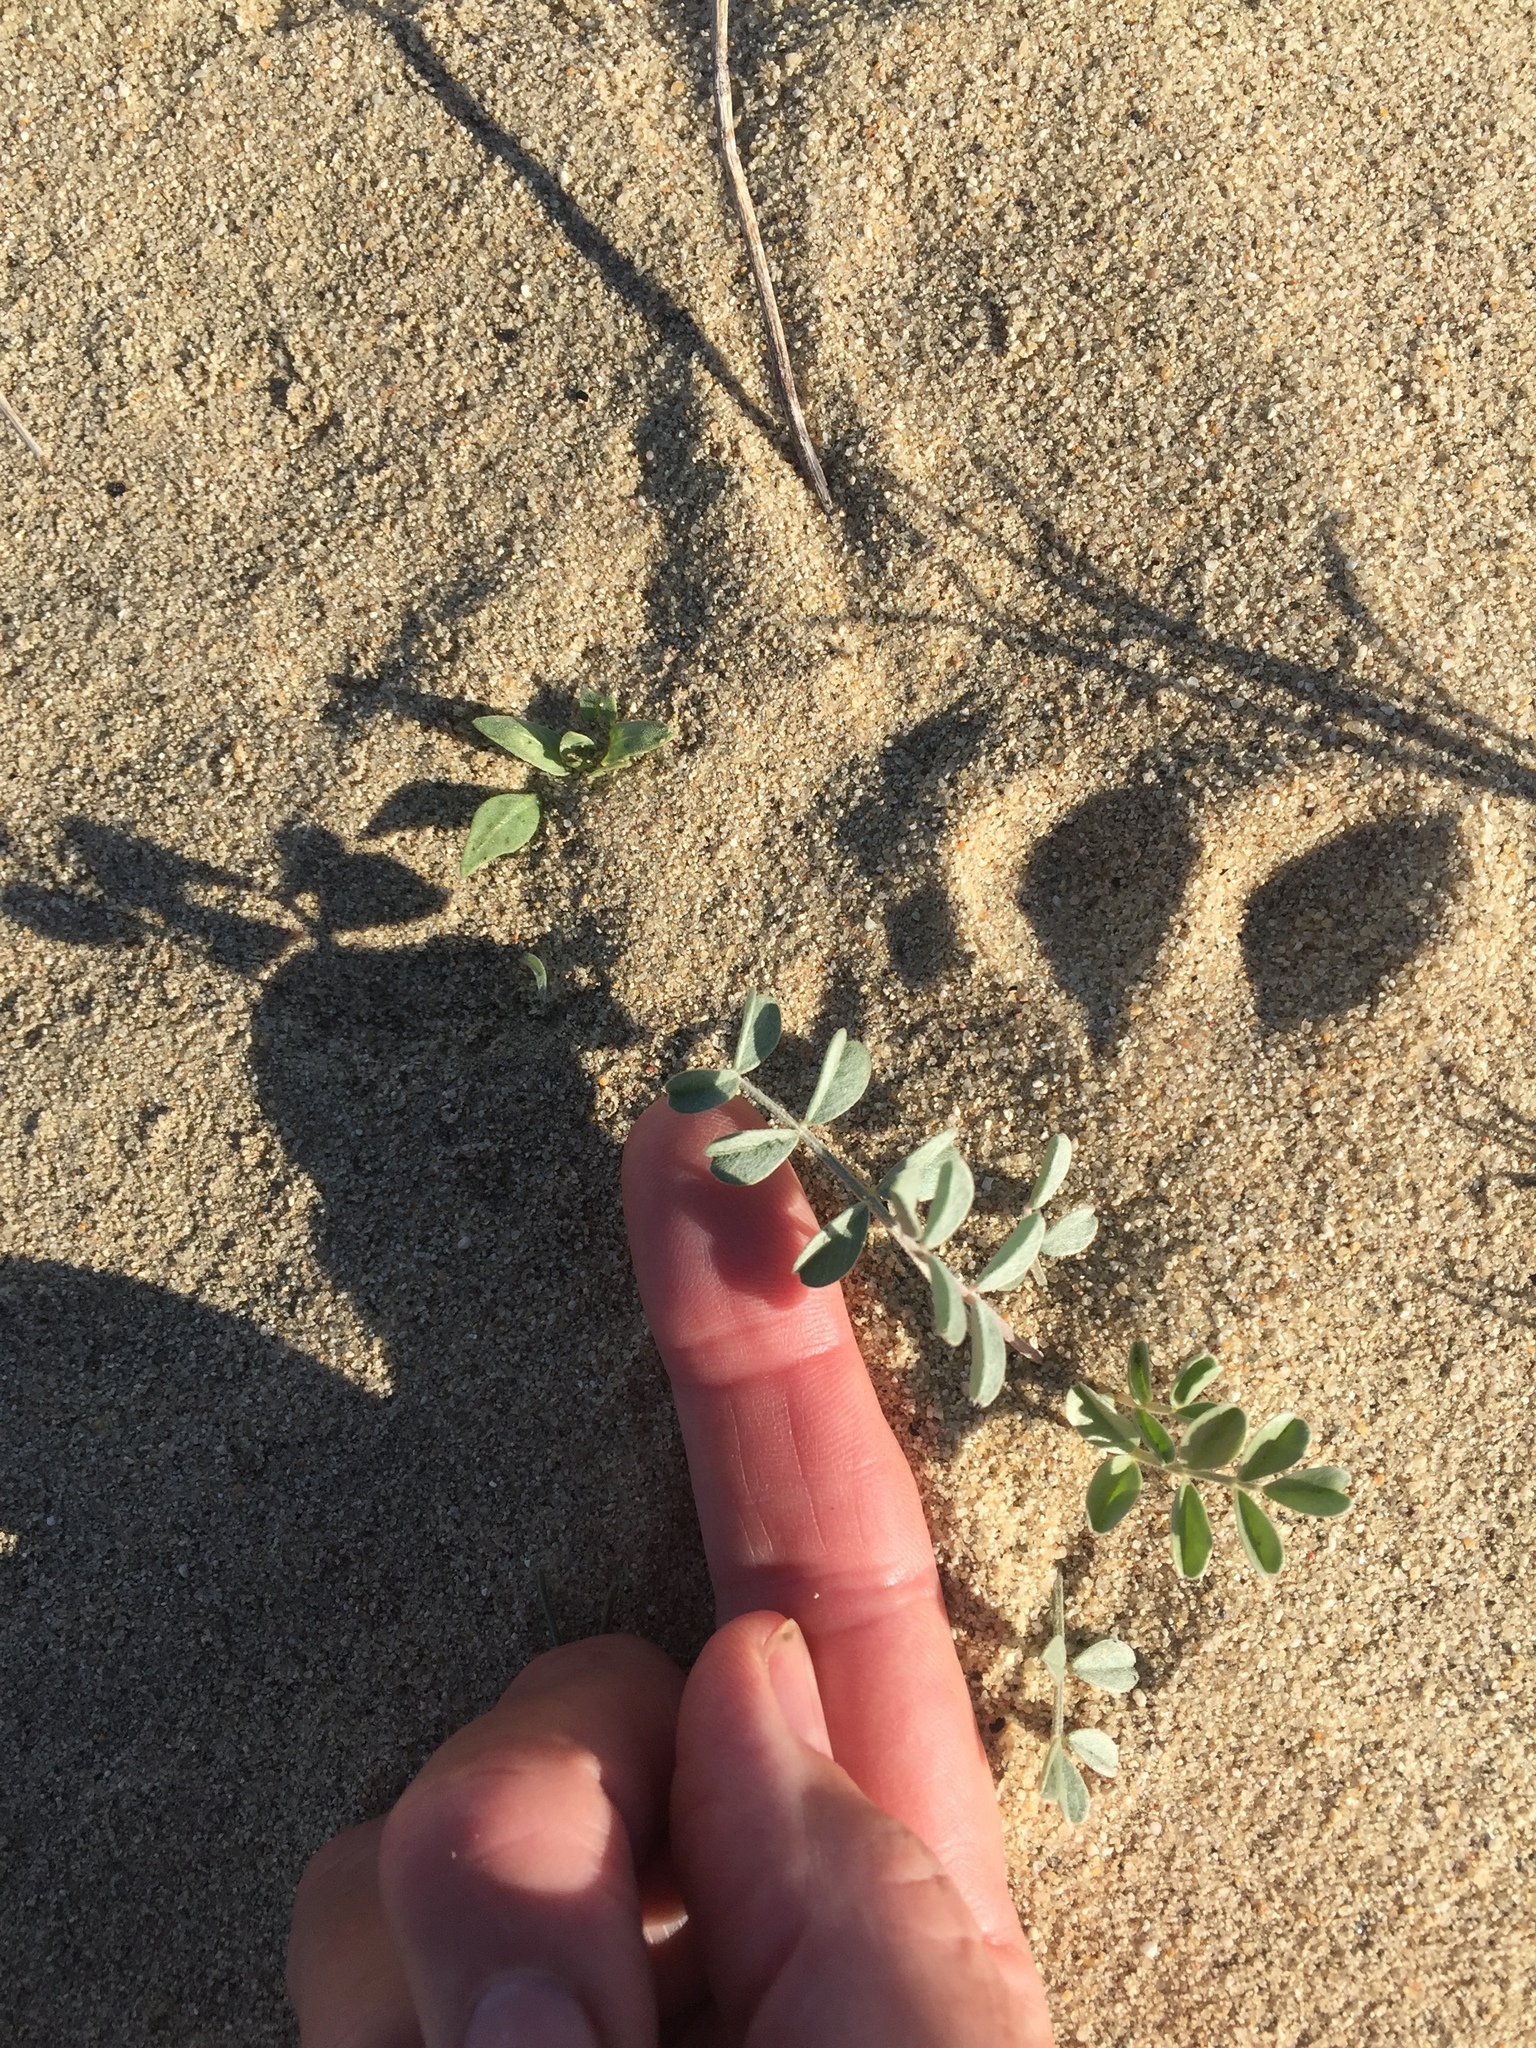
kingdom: Plantae
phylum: Tracheophyta
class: Magnoliopsida
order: Fabales
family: Fabaceae
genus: Astragalus
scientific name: Astragalus lentiginosus
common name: Freckled milkvetch
